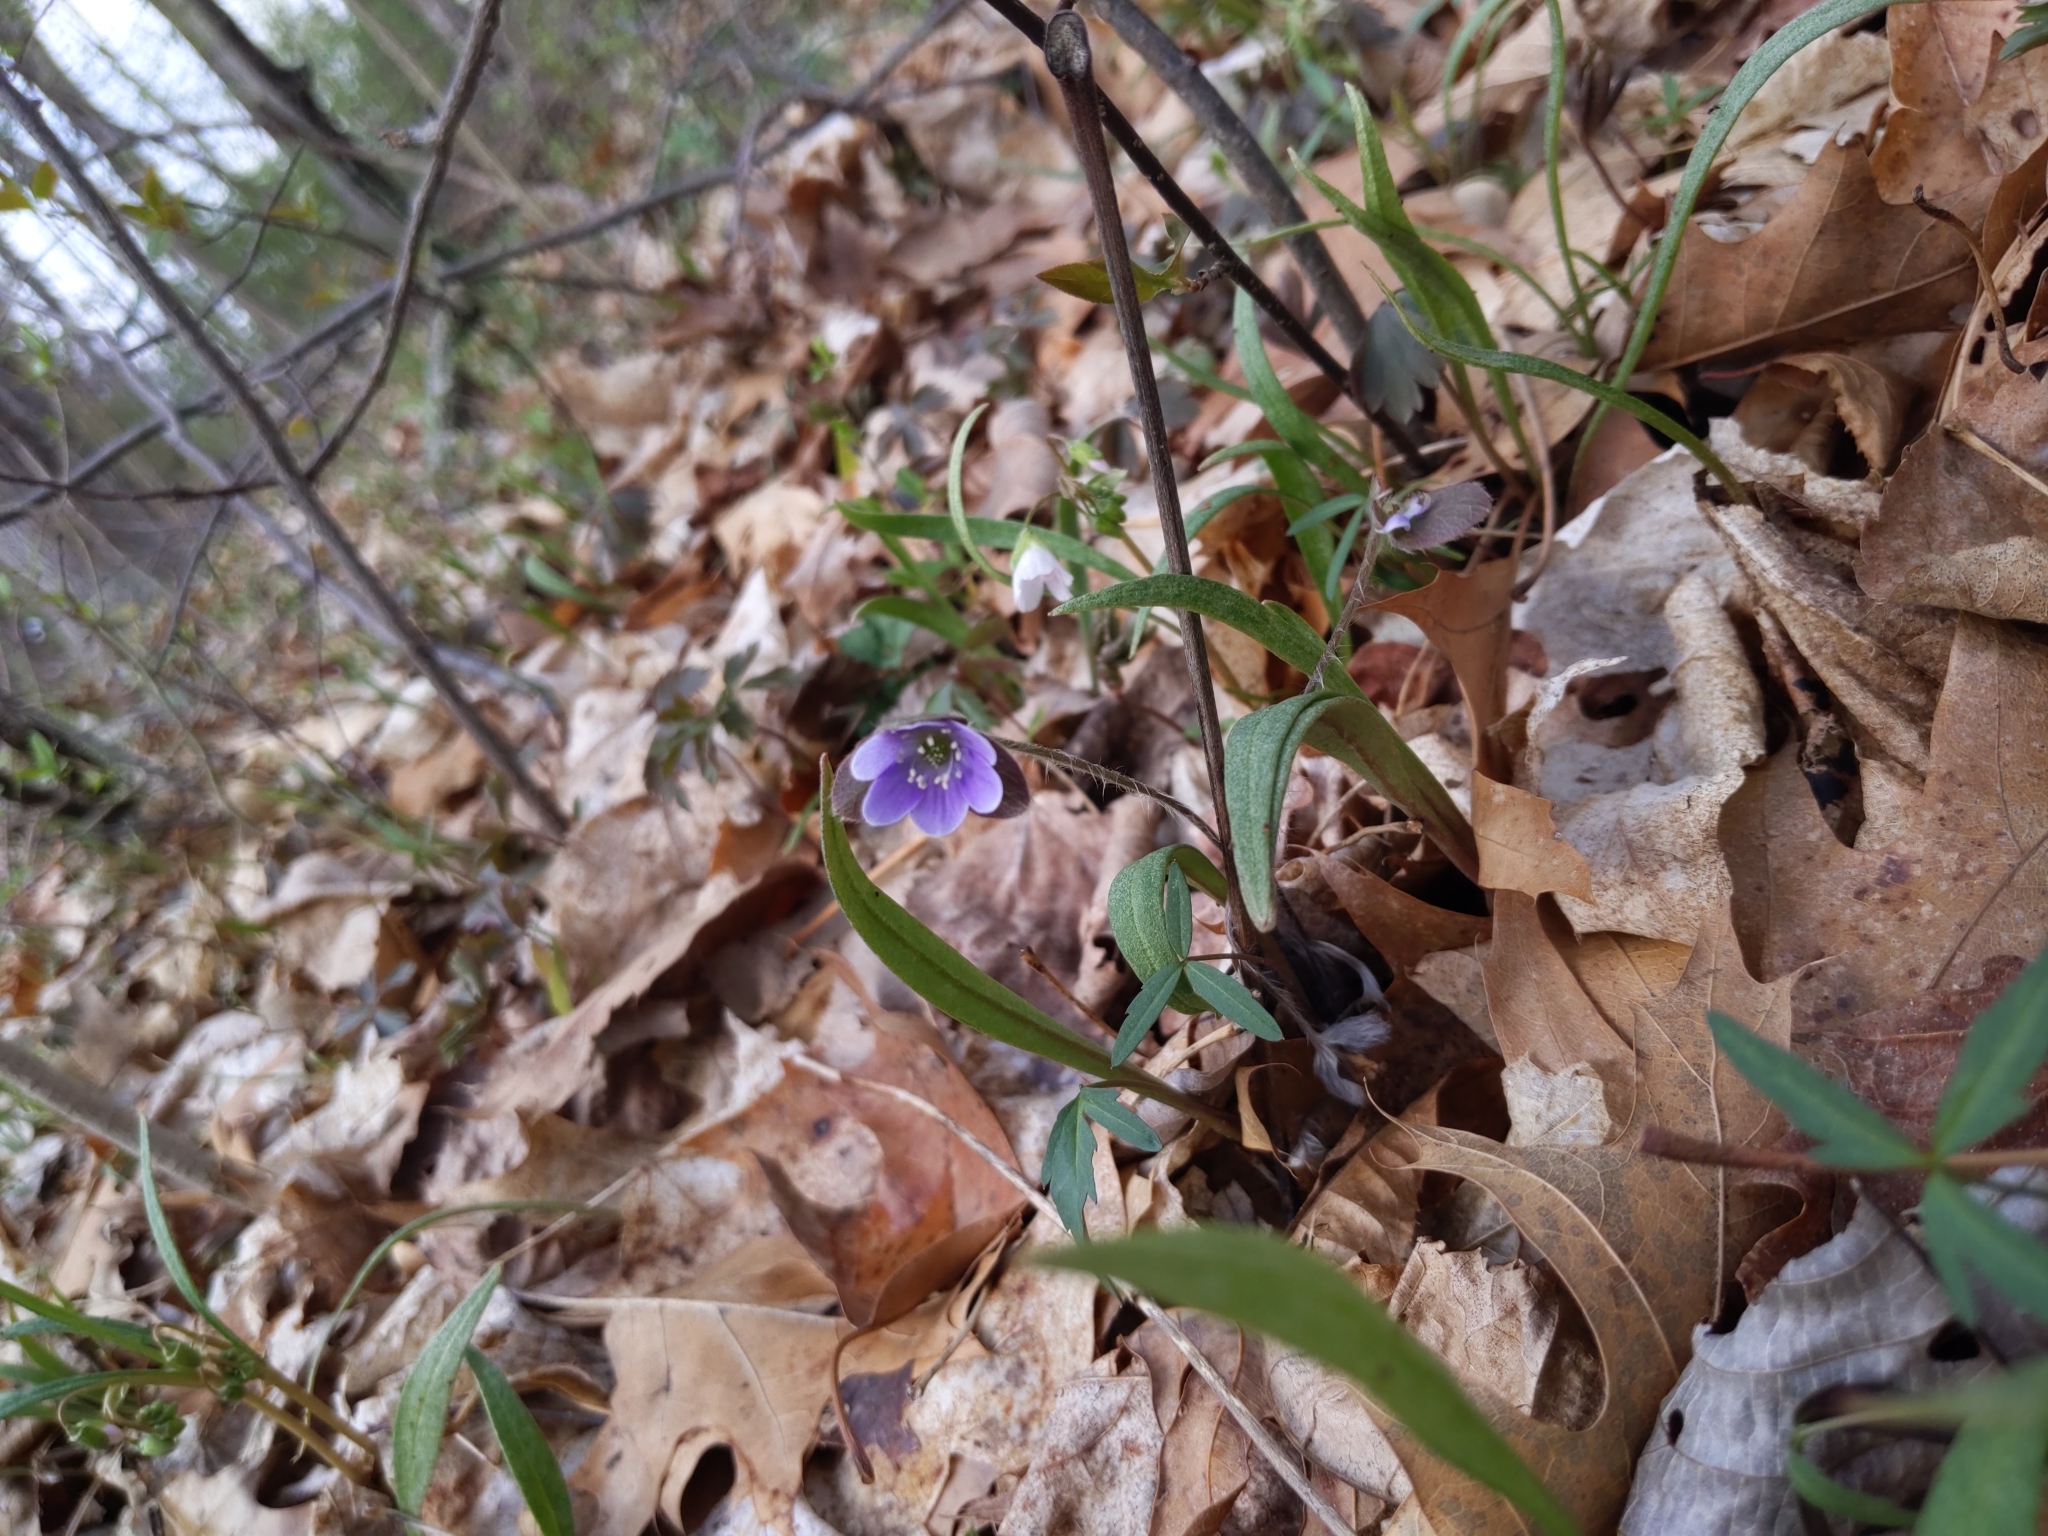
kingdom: Plantae
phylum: Tracheophyta
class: Magnoliopsida
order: Ranunculales
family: Ranunculaceae
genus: Hepatica
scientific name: Hepatica americana
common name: American hepatica
